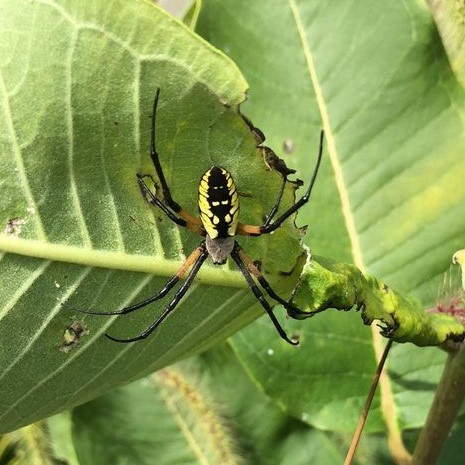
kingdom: Animalia
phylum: Arthropoda
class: Arachnida
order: Araneae
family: Araneidae
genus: Argiope
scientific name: Argiope aurantia
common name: Orb weavers
